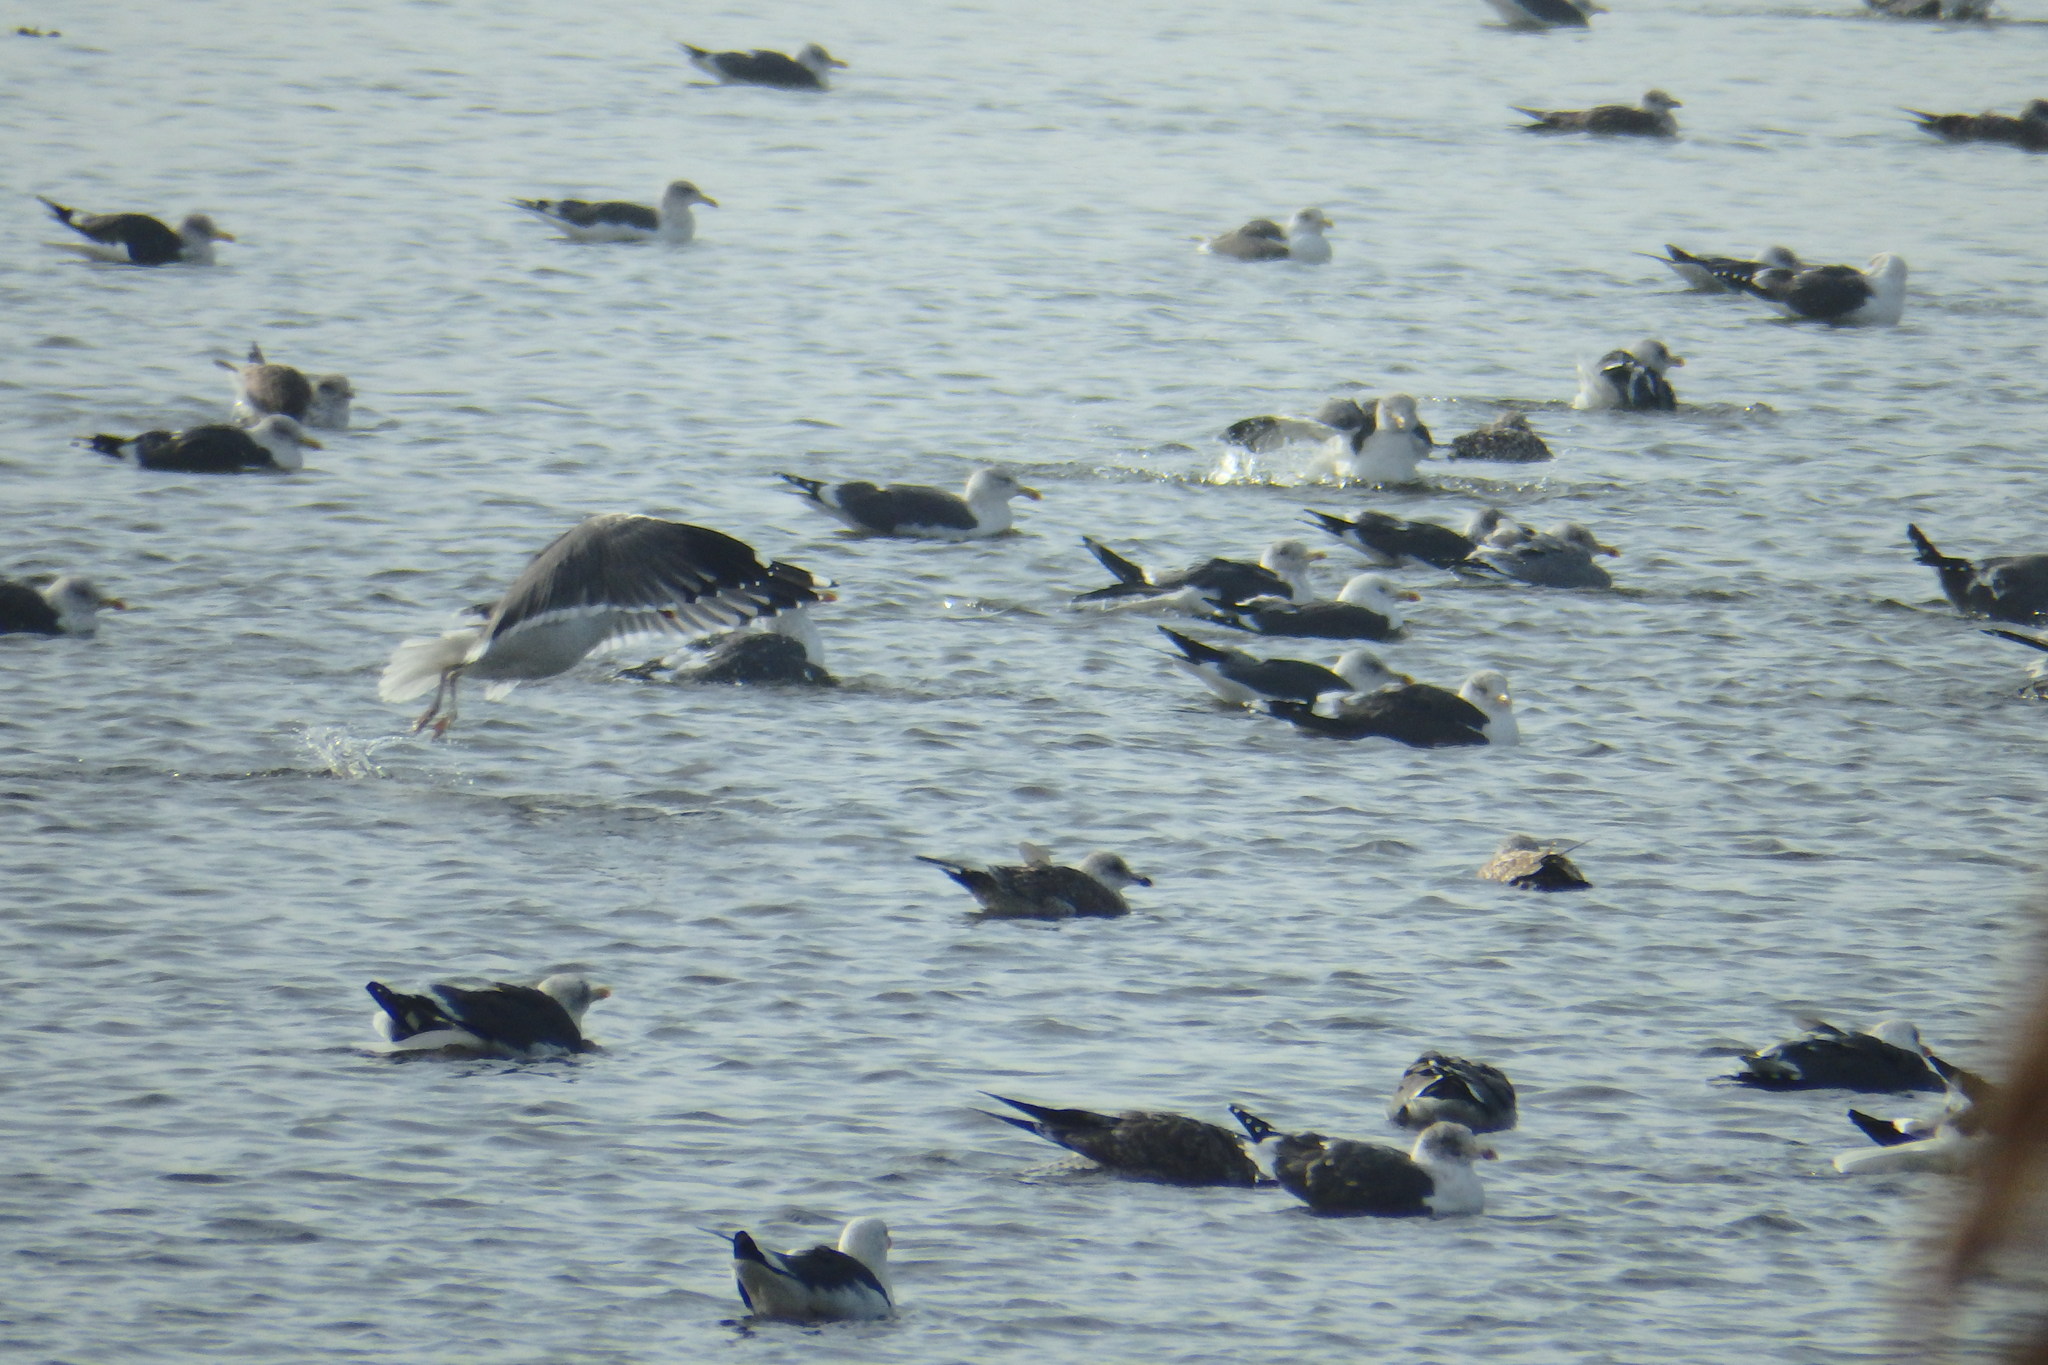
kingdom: Animalia
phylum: Chordata
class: Aves
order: Charadriiformes
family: Laridae
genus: Larus
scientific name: Larus fuscus
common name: Lesser black-backed gull
